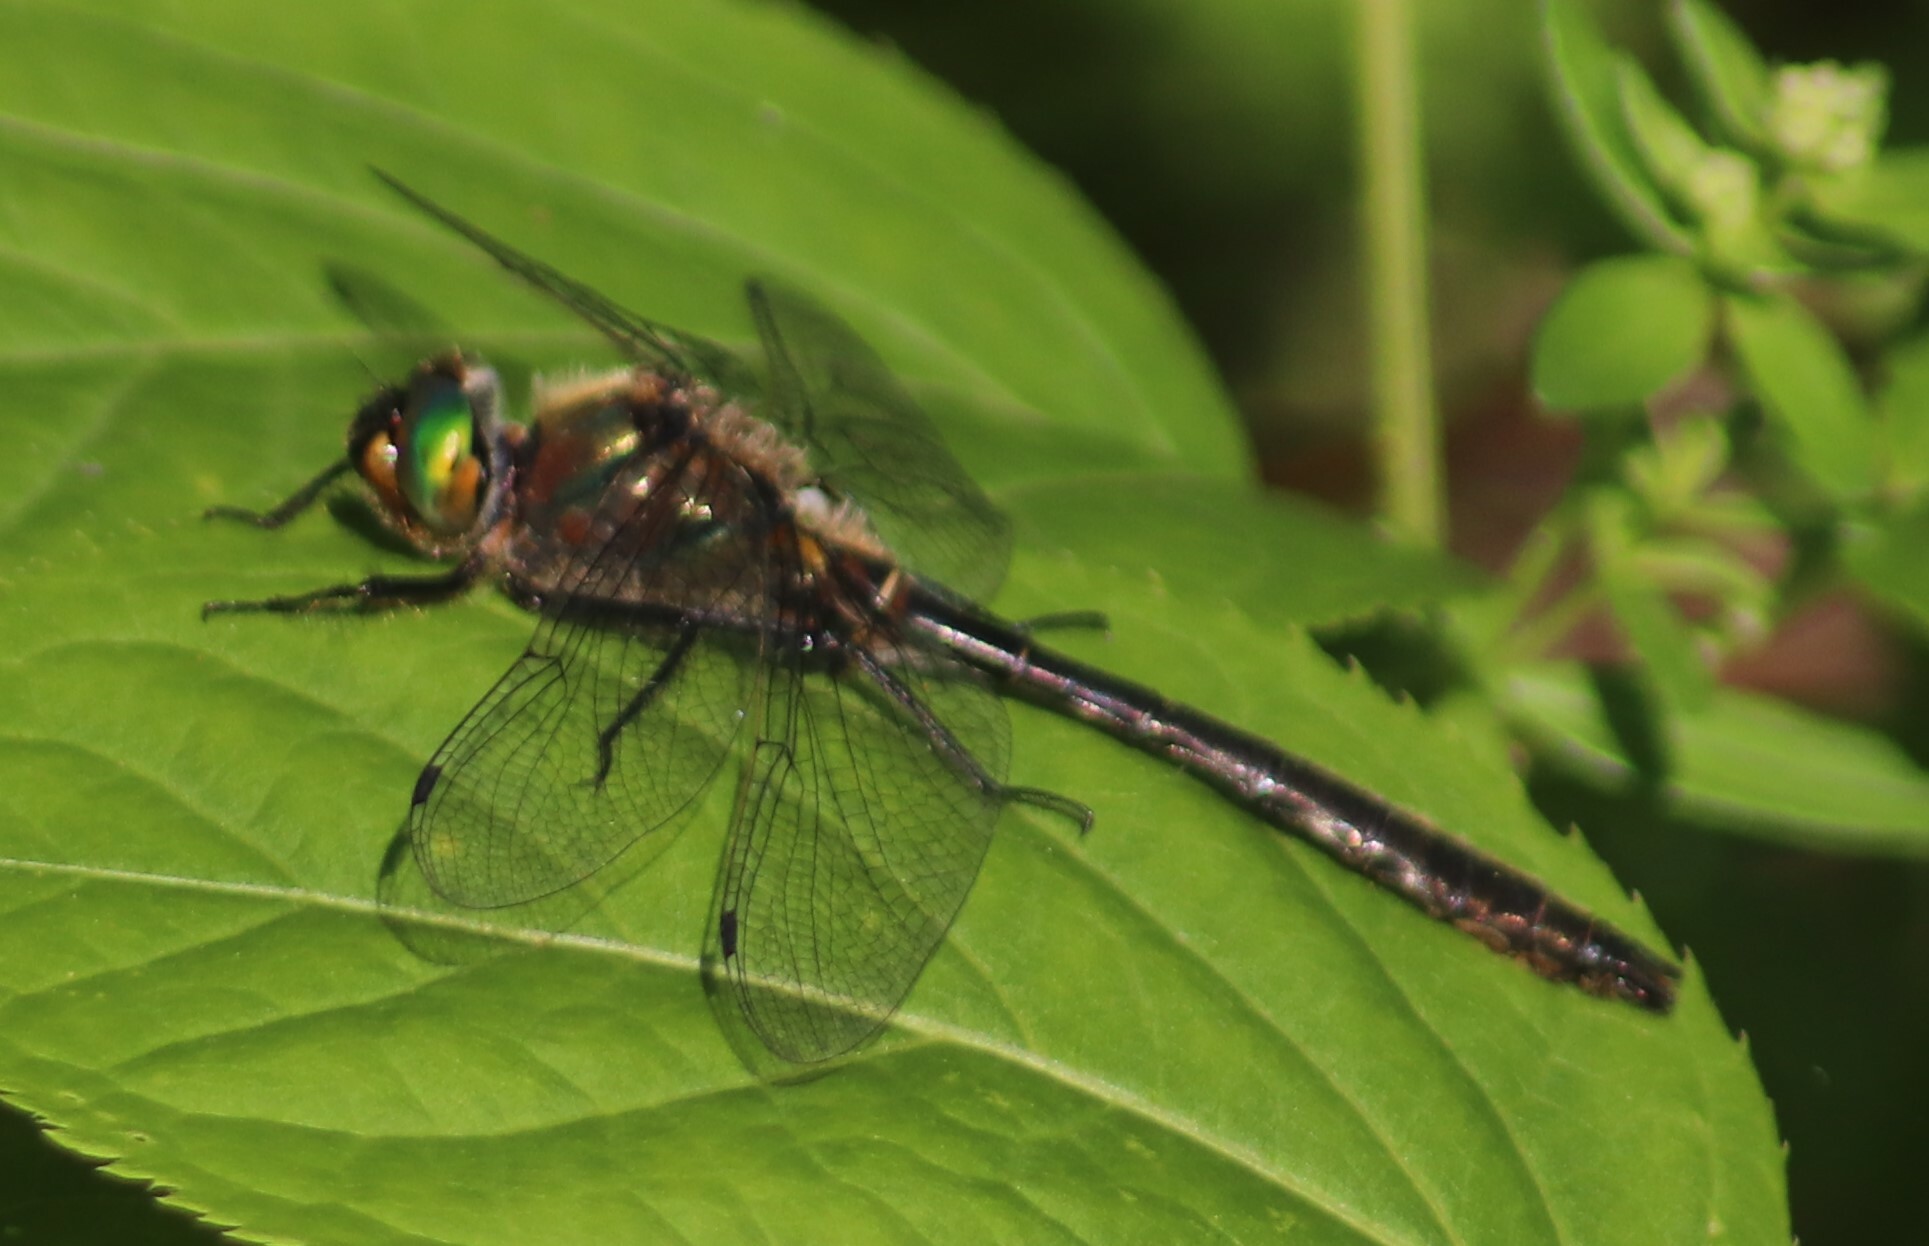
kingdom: Animalia
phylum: Arthropoda
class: Insecta
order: Odonata
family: Corduliidae
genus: Cordulia
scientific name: Cordulia shurtleffii
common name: American emerald
